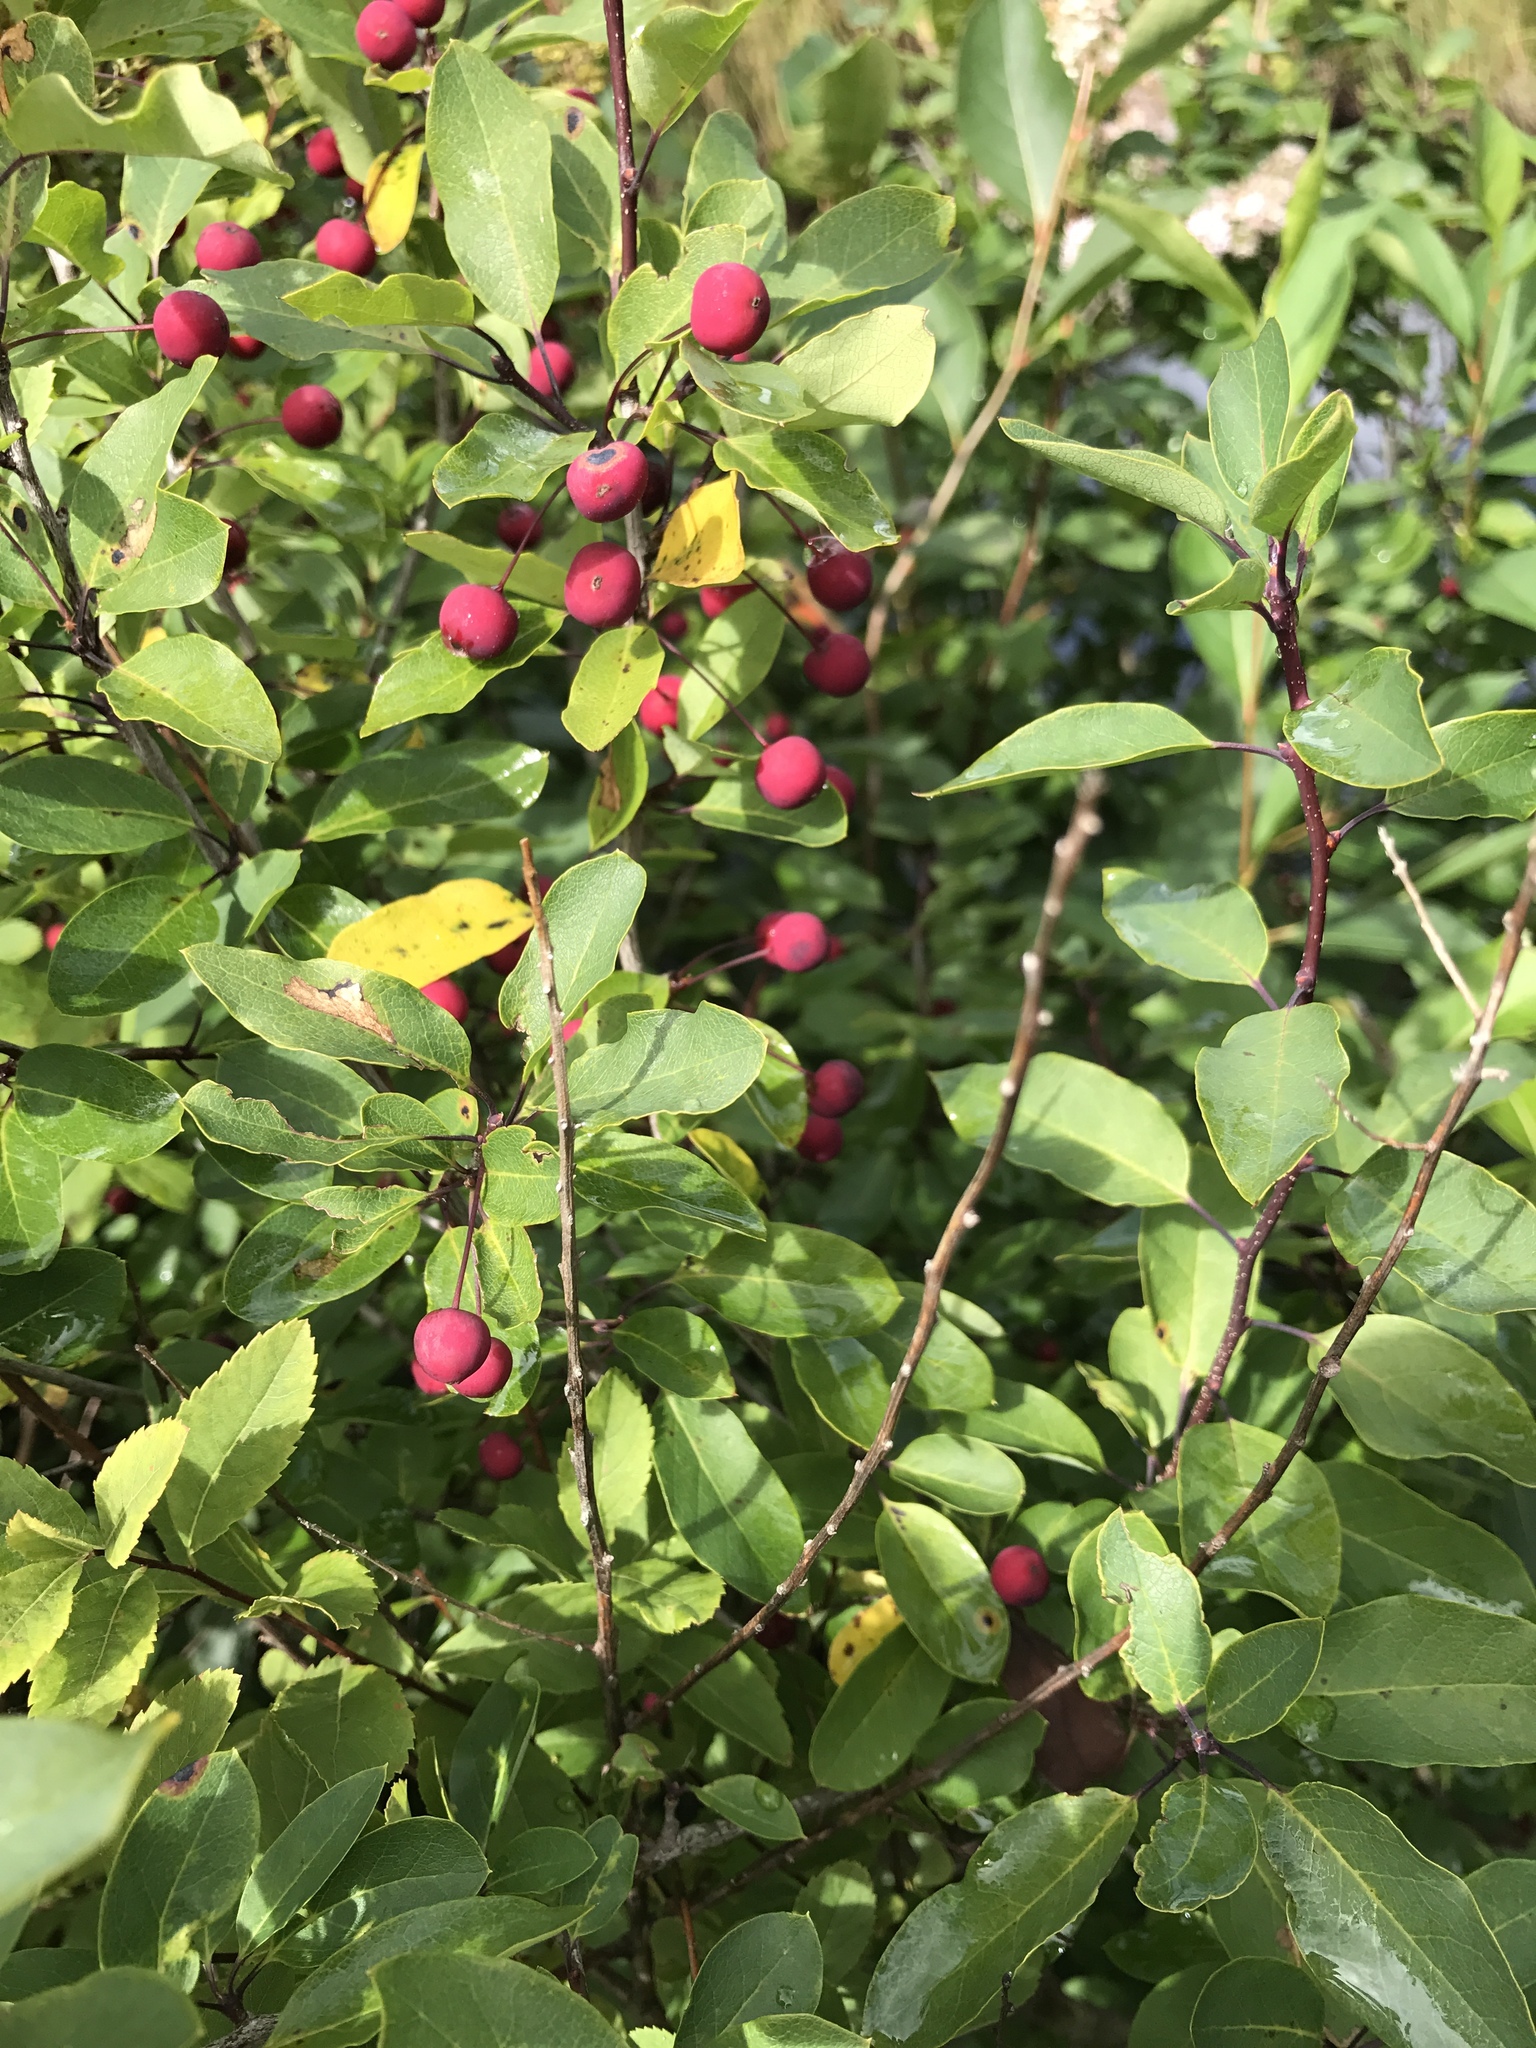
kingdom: Plantae
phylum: Tracheophyta
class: Magnoliopsida
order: Aquifoliales
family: Aquifoliaceae
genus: Ilex
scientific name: Ilex mucronata
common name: Catberry
